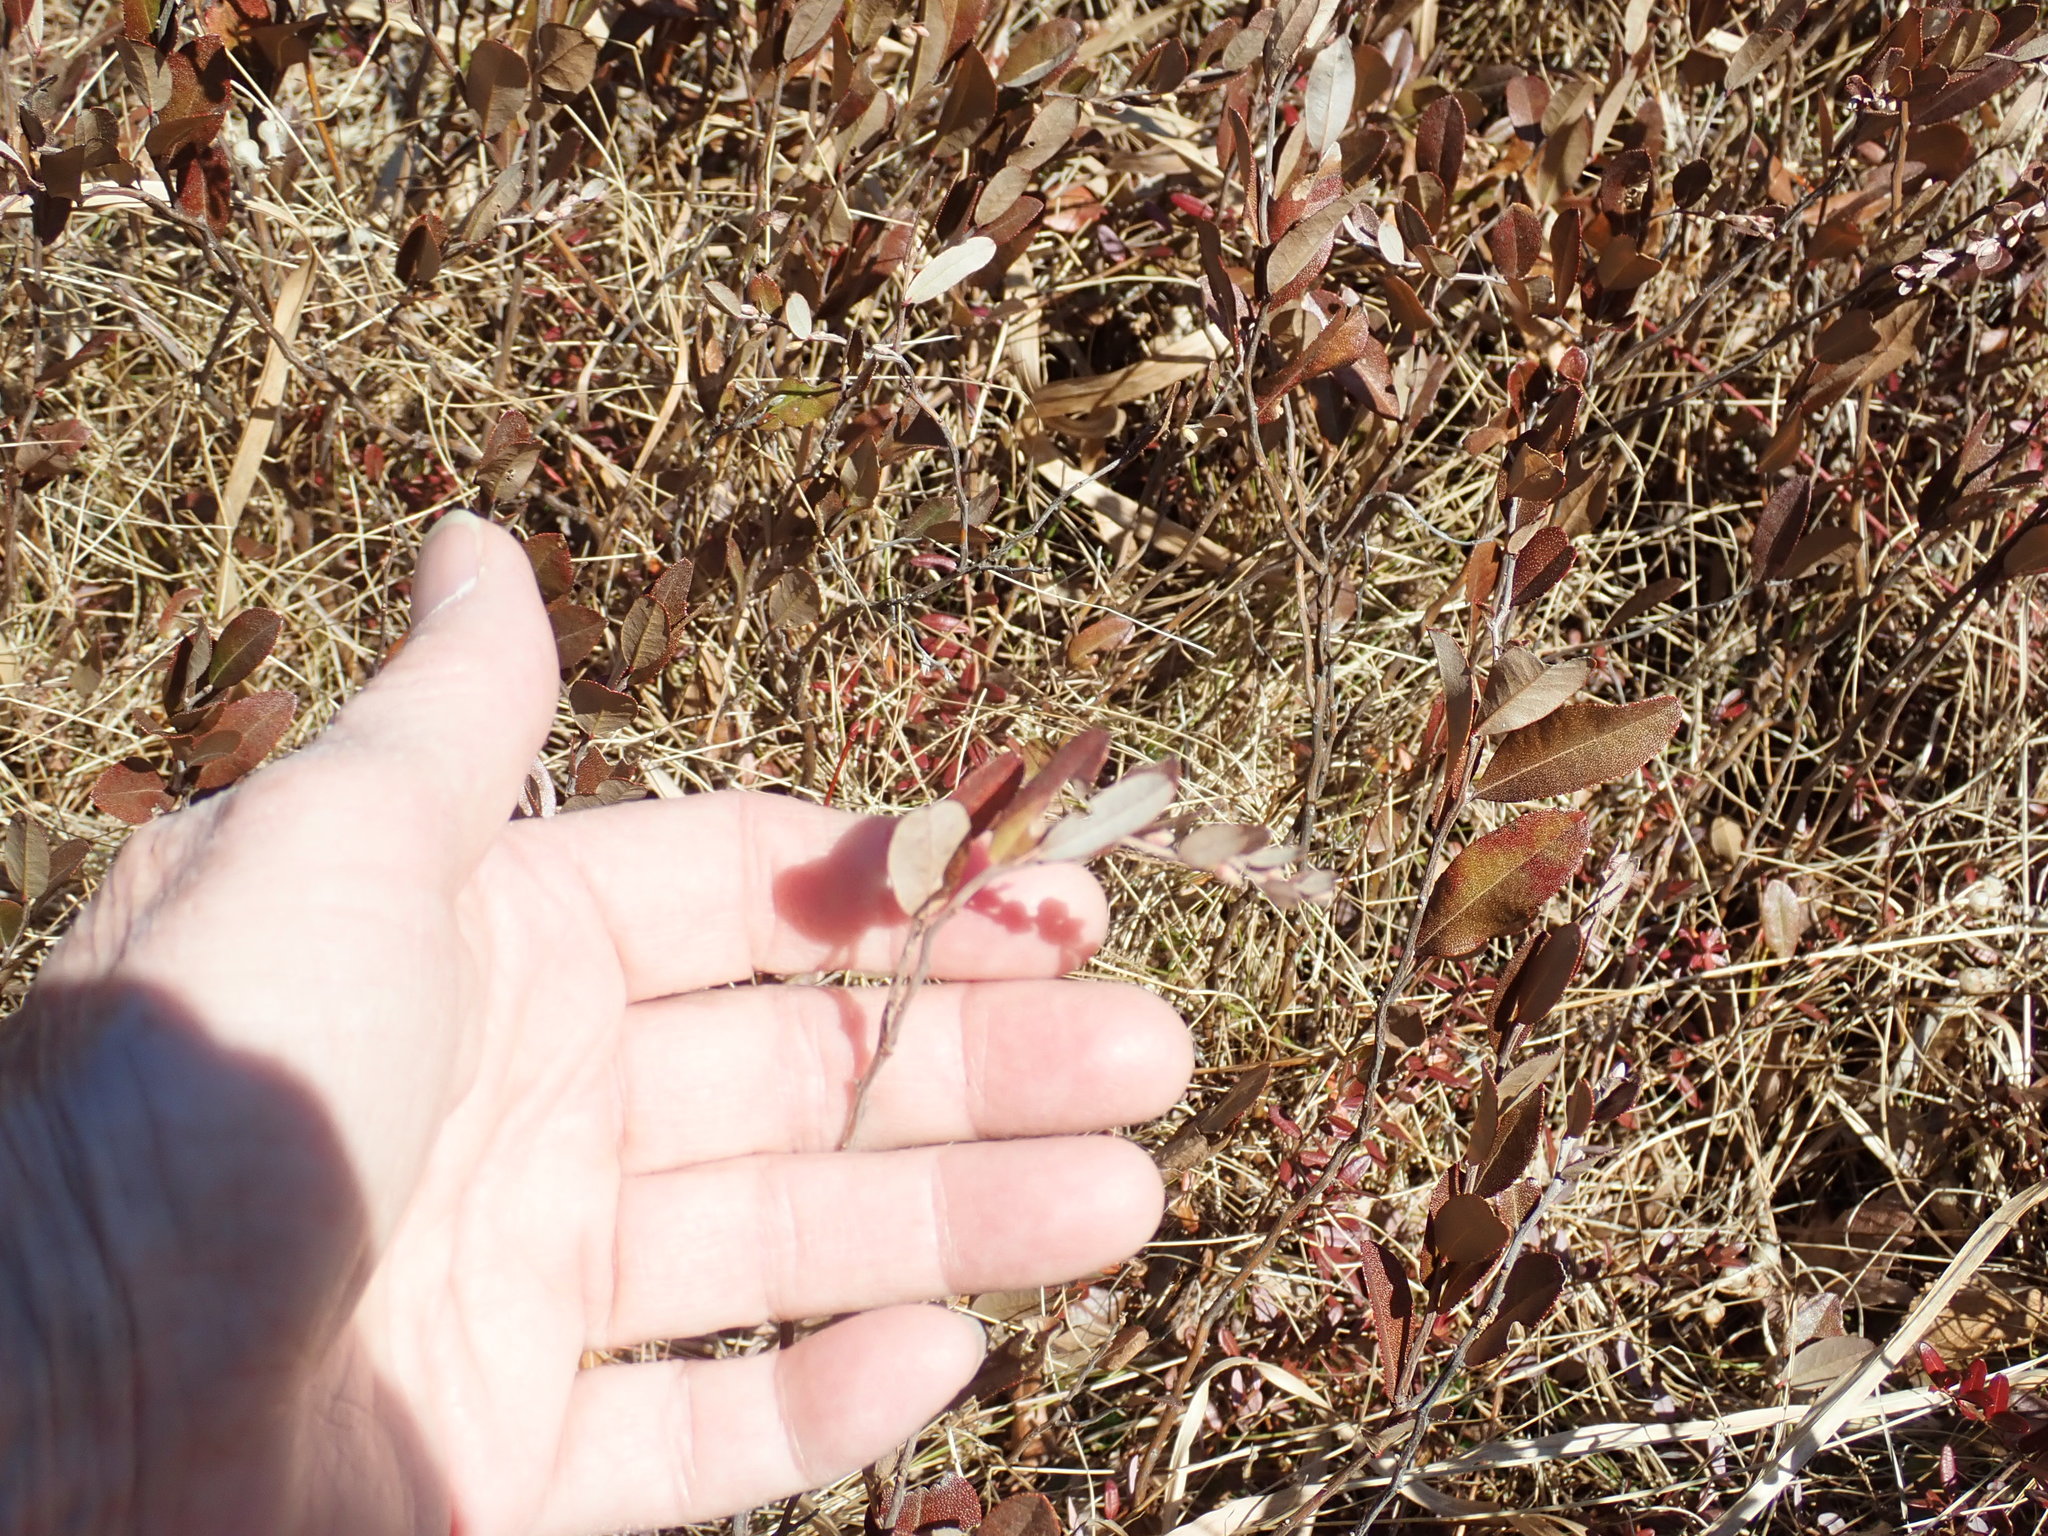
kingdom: Plantae
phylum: Tracheophyta
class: Magnoliopsida
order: Ericales
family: Ericaceae
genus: Chamaedaphne
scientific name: Chamaedaphne calyculata
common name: Leatherleaf
